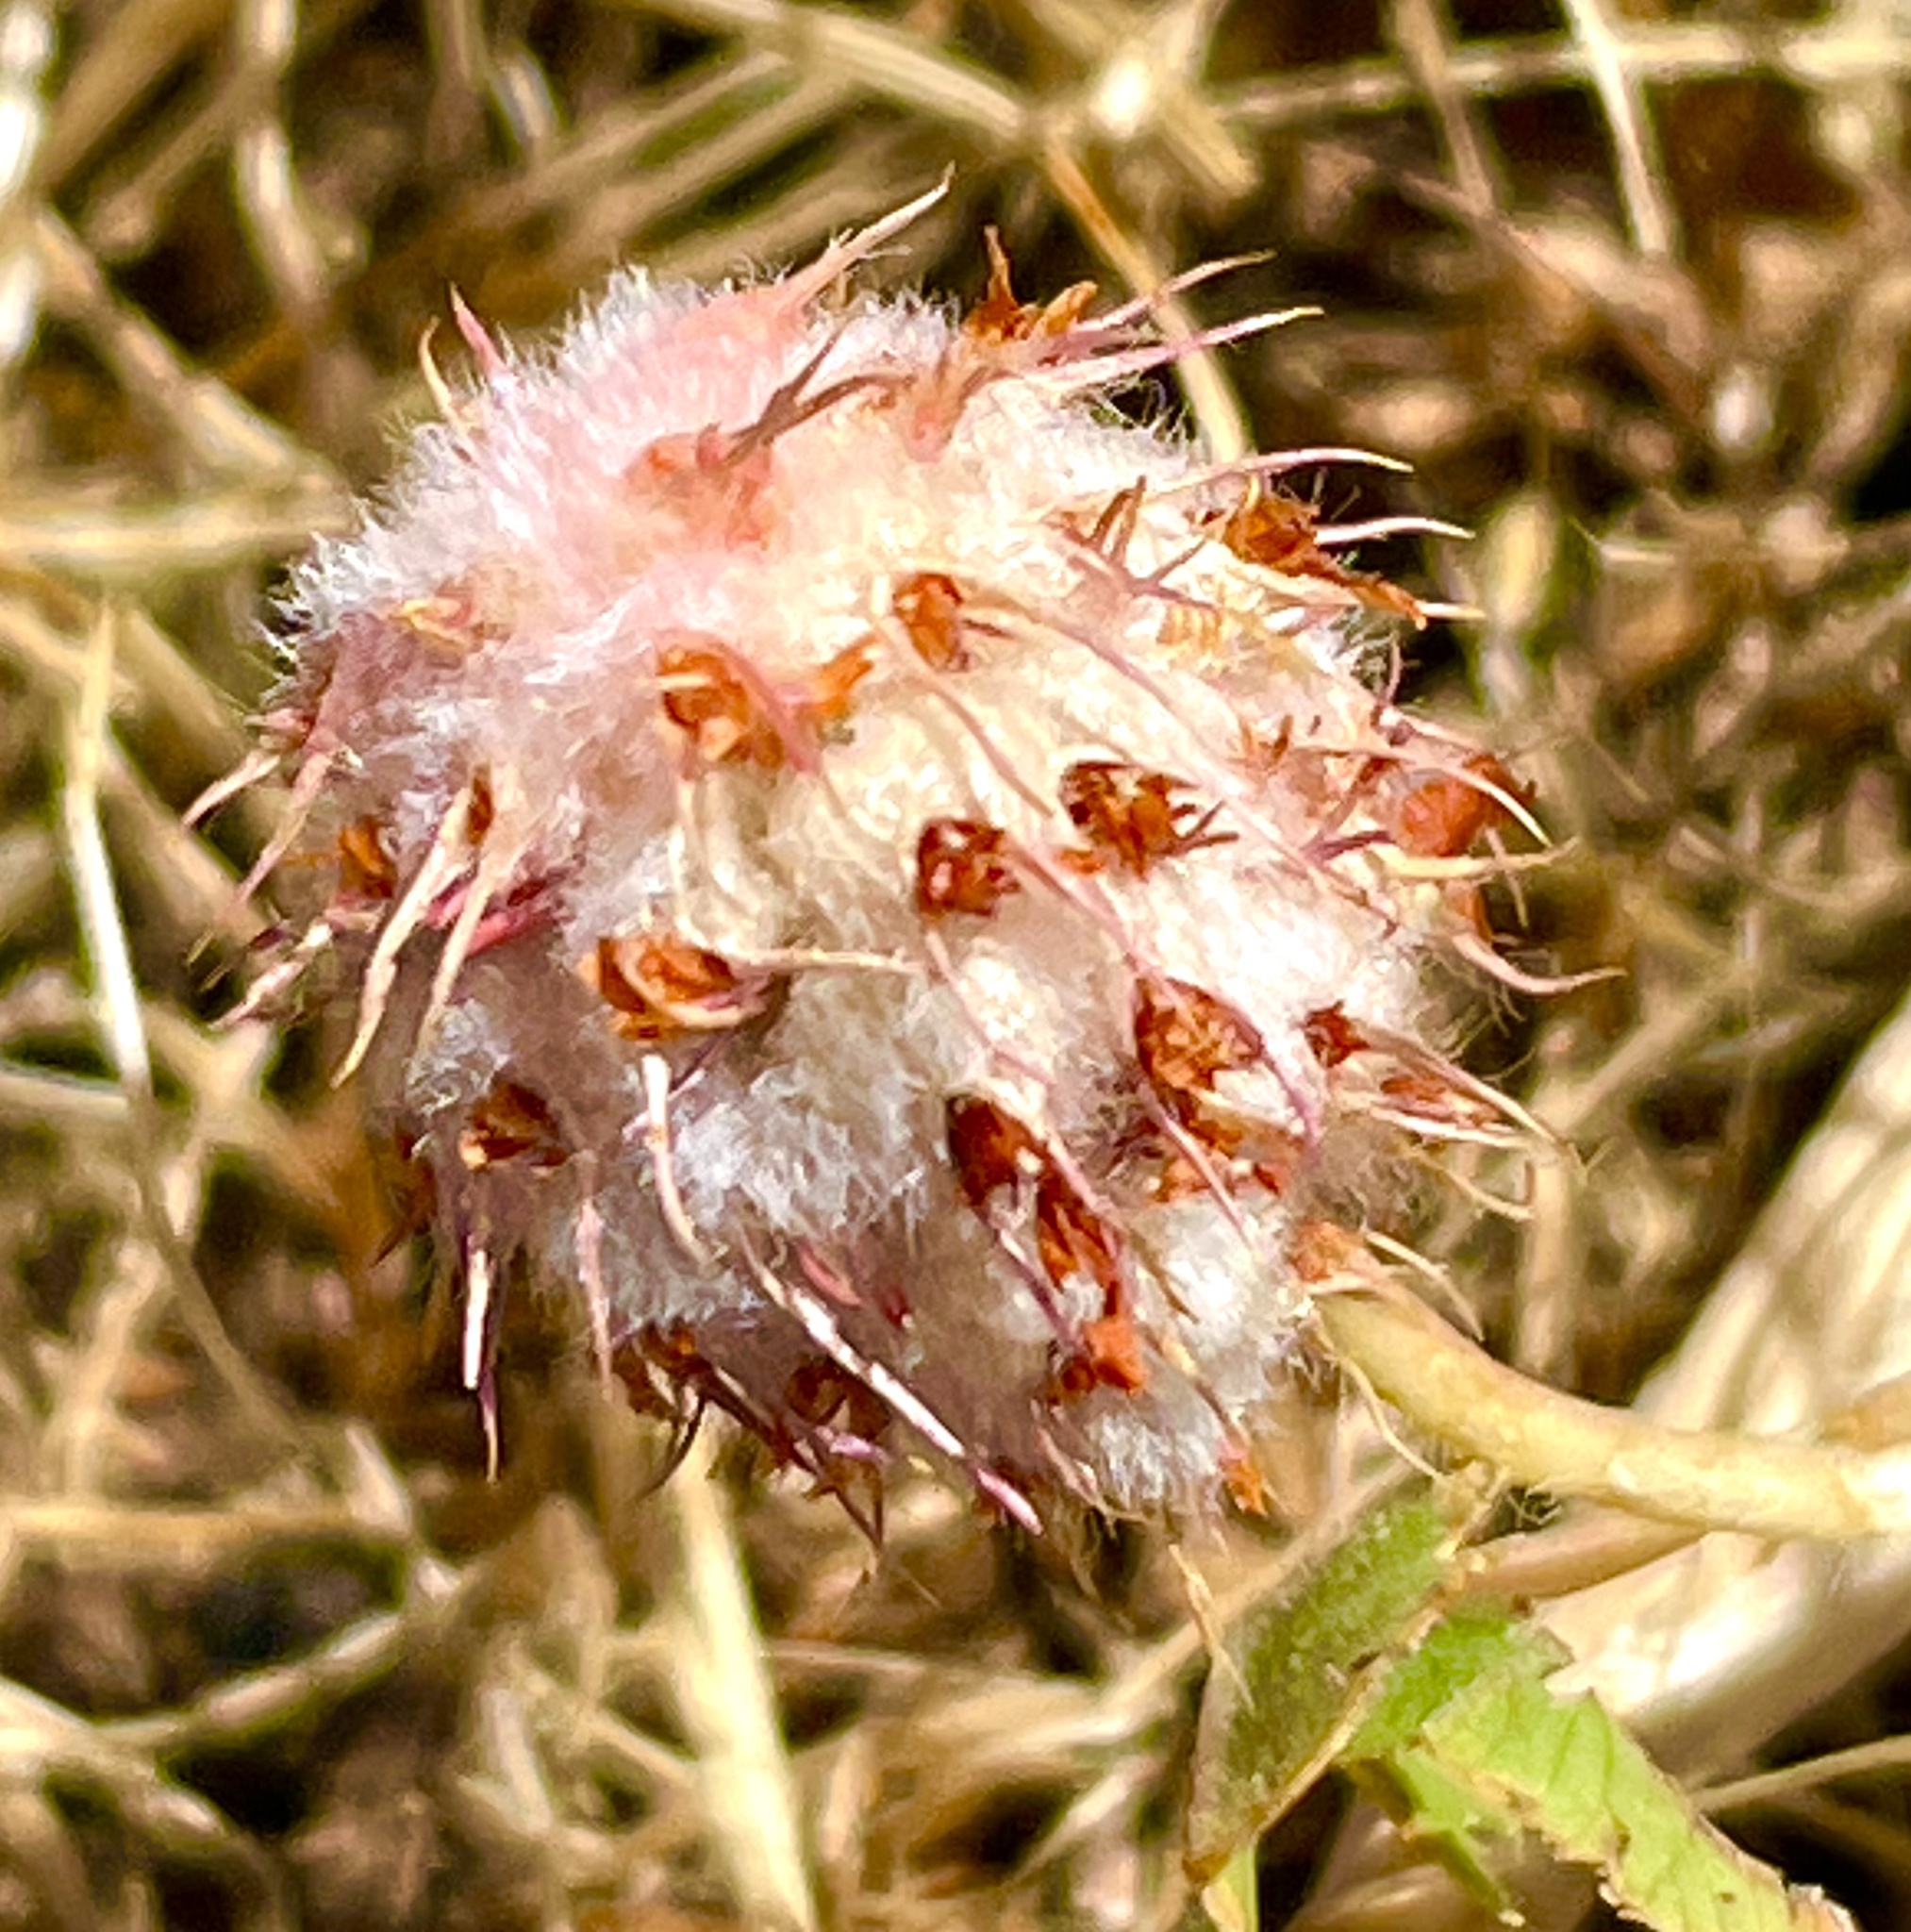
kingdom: Plantae
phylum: Tracheophyta
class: Magnoliopsida
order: Fabales
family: Fabaceae
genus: Trifolium
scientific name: Trifolium fragiferum
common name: Strawberry clover
